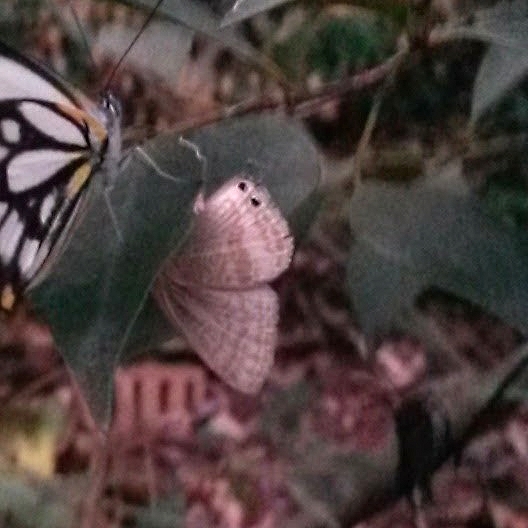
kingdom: Animalia
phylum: Arthropoda
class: Insecta
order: Lepidoptera
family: Lycaenidae
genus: Lampides
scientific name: Lampides boeticus
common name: Long-tailed blue
